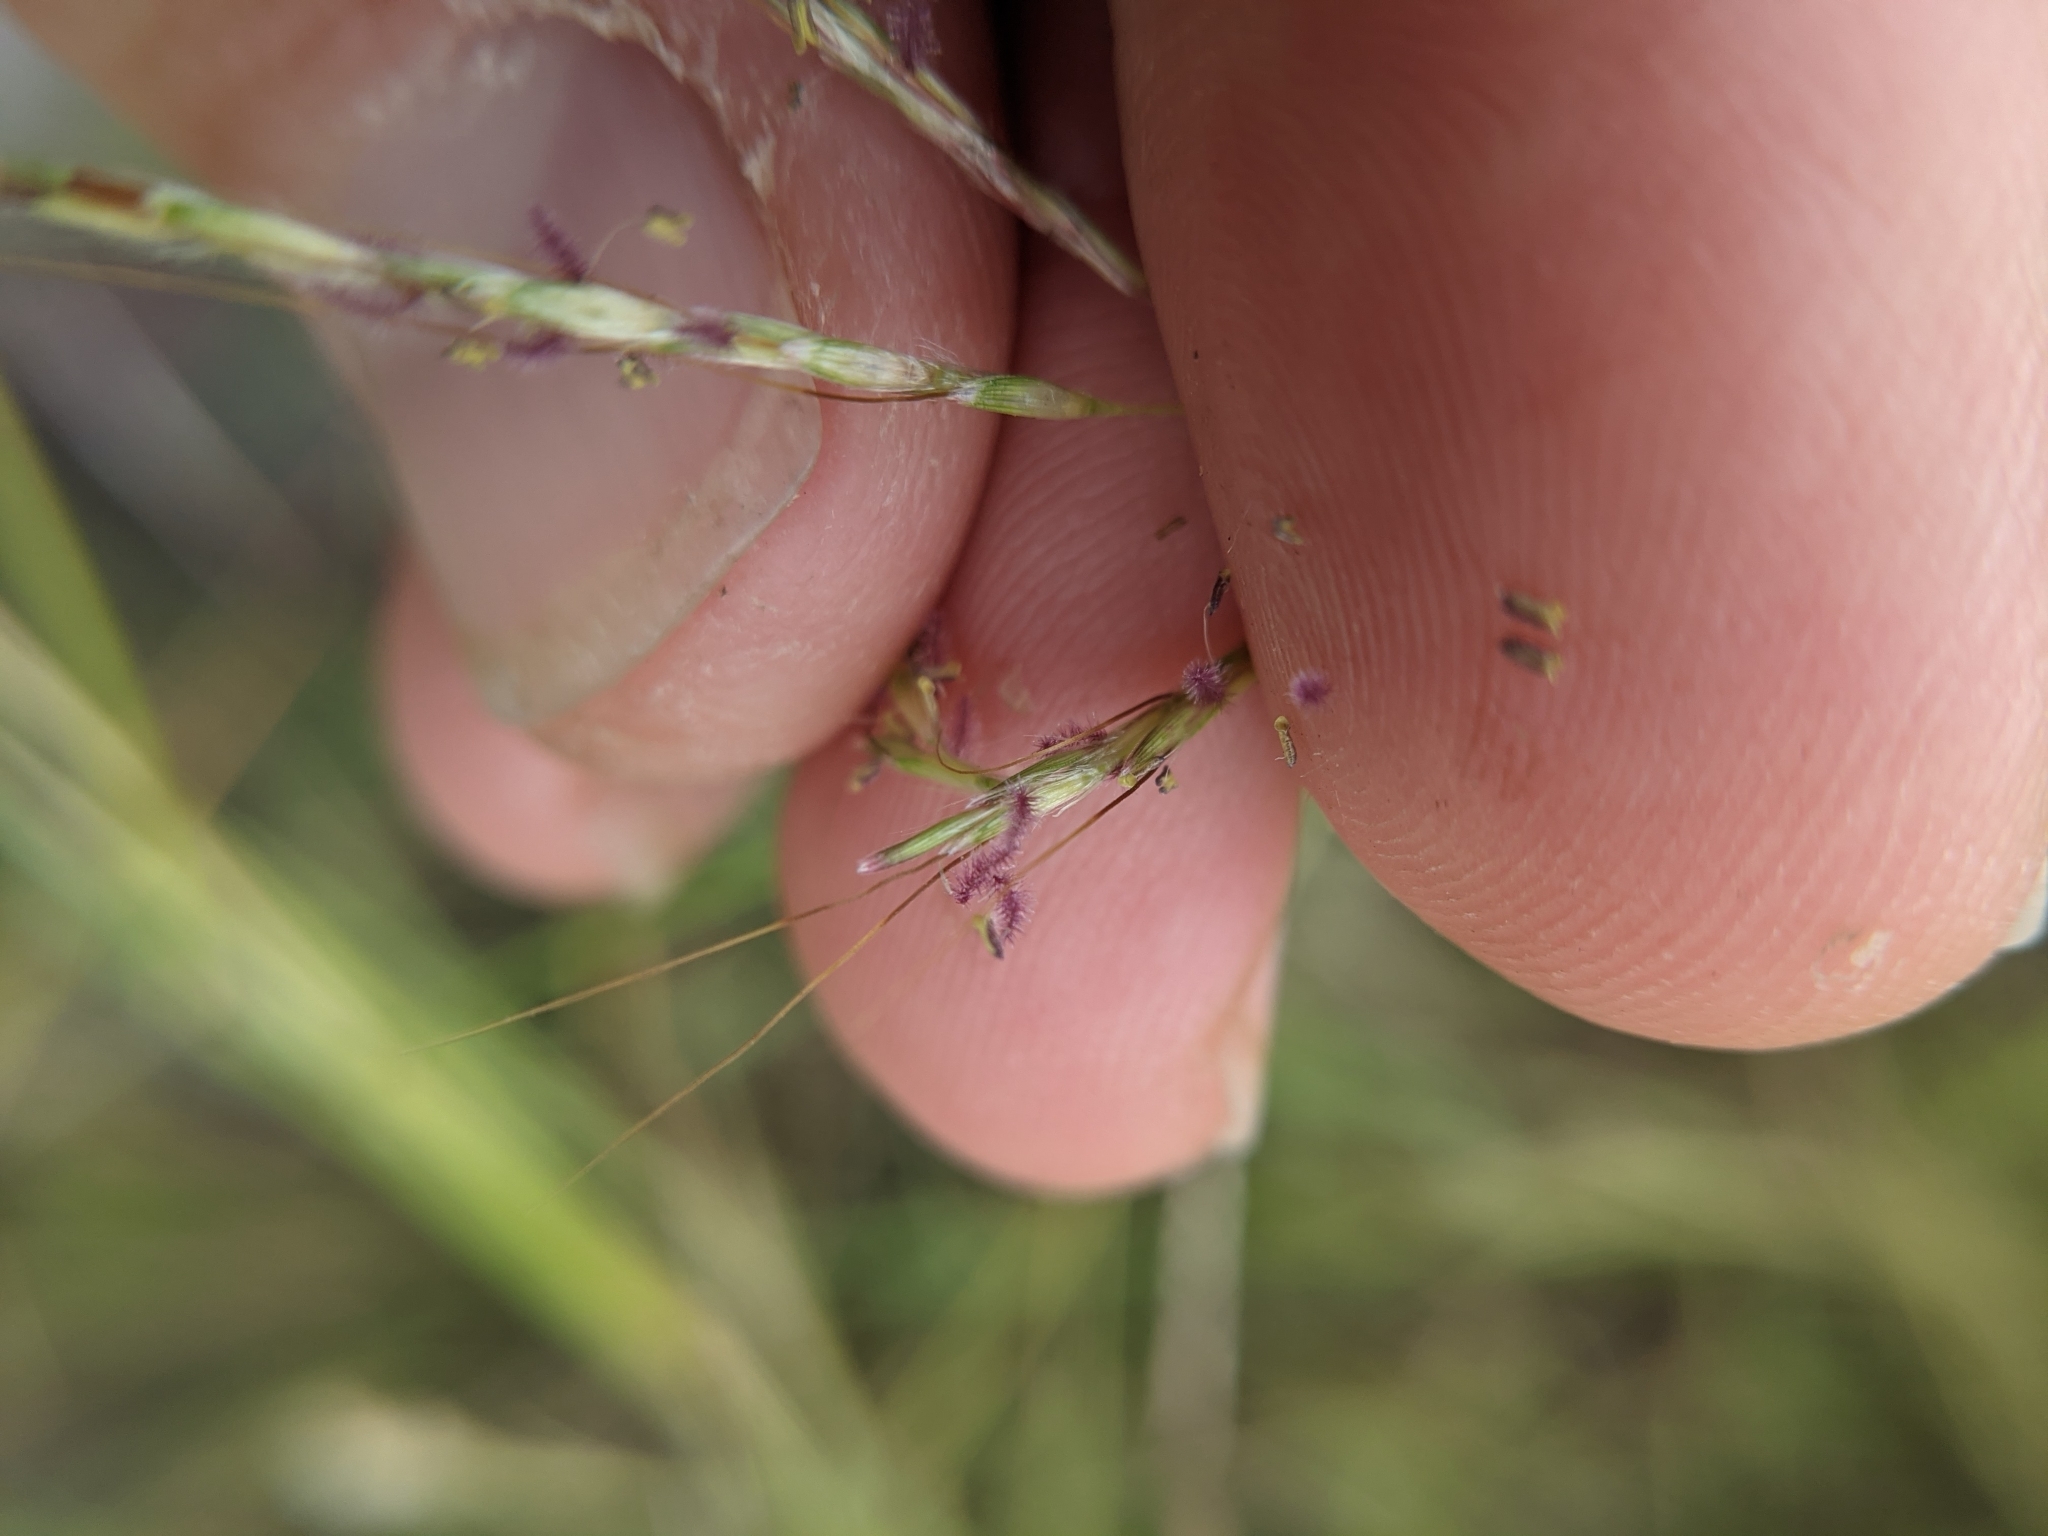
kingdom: Plantae
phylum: Tracheophyta
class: Liliopsida
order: Poales
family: Poaceae
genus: Bothriochloa
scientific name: Bothriochloa ischaemum
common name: Yellow bluestem
